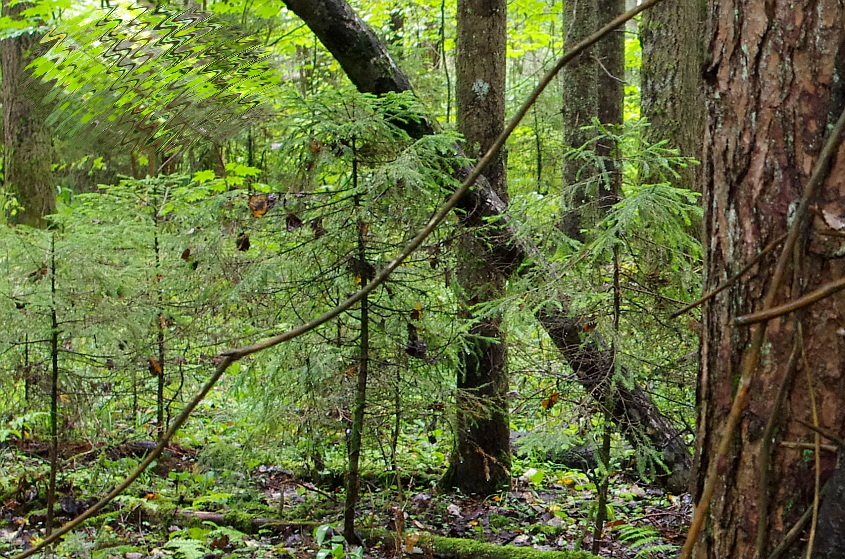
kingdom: Plantae
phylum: Tracheophyta
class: Pinopsida
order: Pinales
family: Pinaceae
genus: Picea
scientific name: Picea abies
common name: Norway spruce
